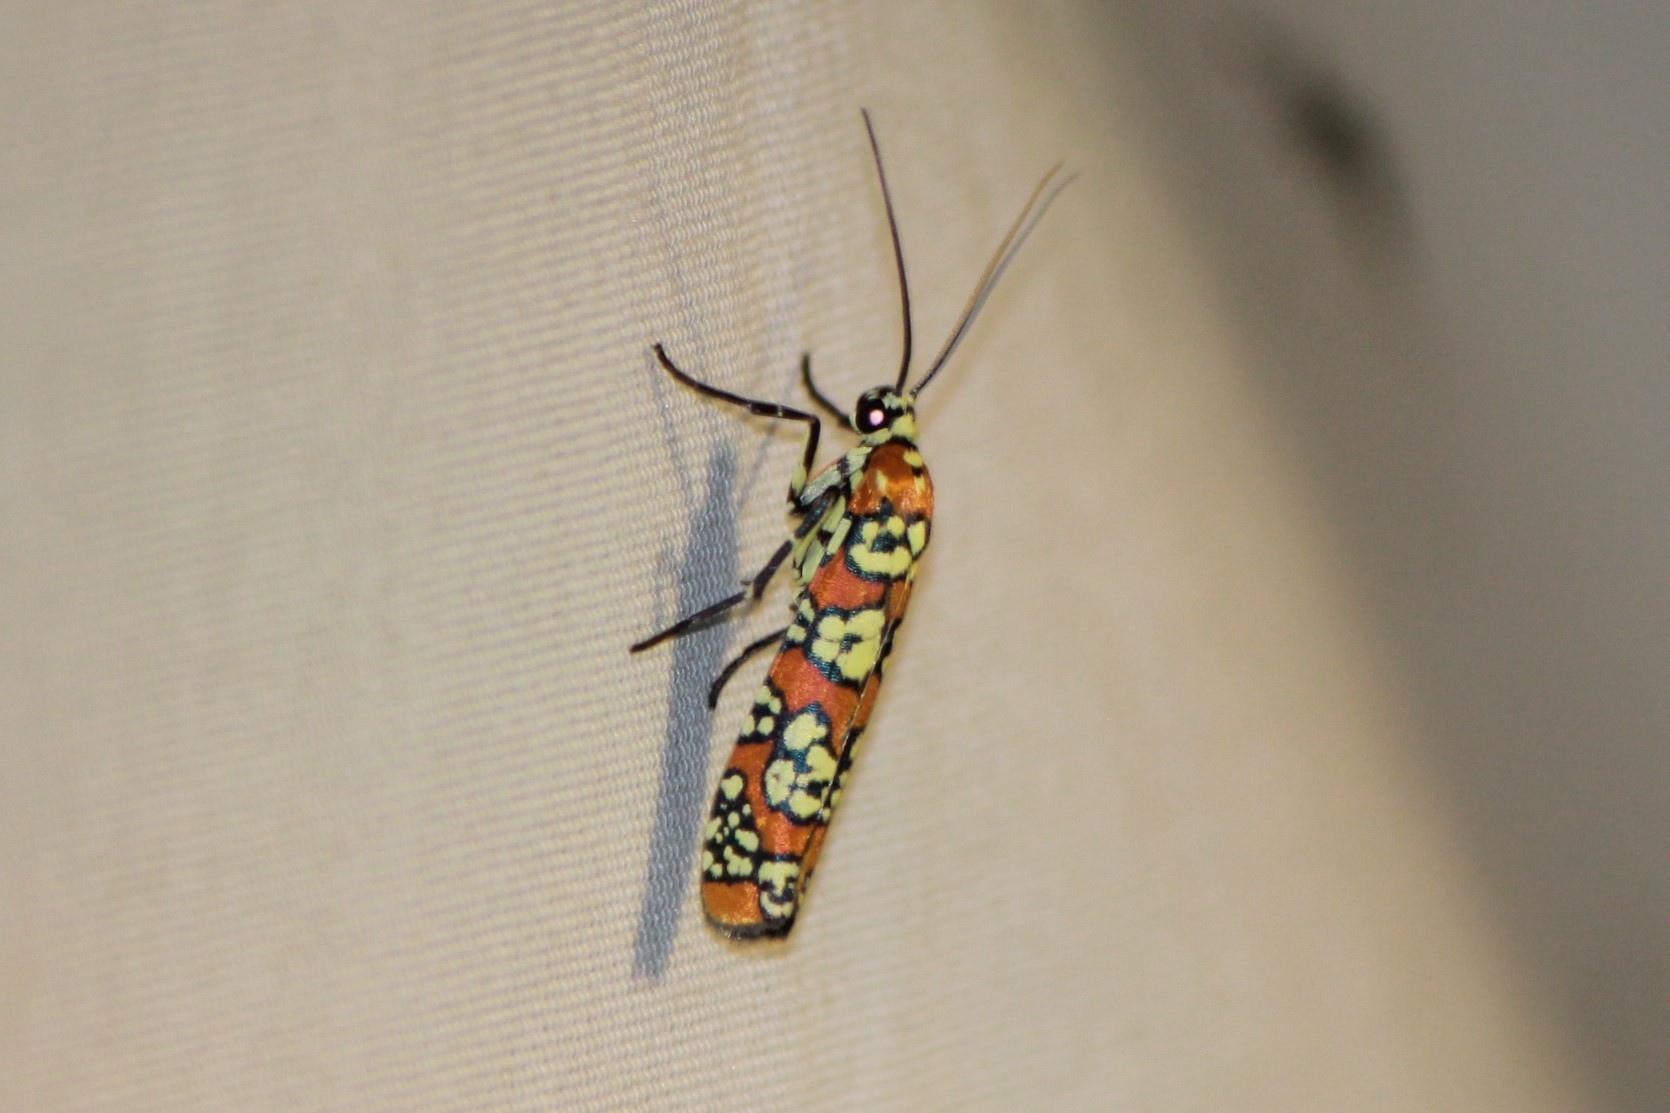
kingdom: Animalia
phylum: Arthropoda
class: Insecta
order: Lepidoptera
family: Attevidae
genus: Atteva
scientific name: Atteva punctella
